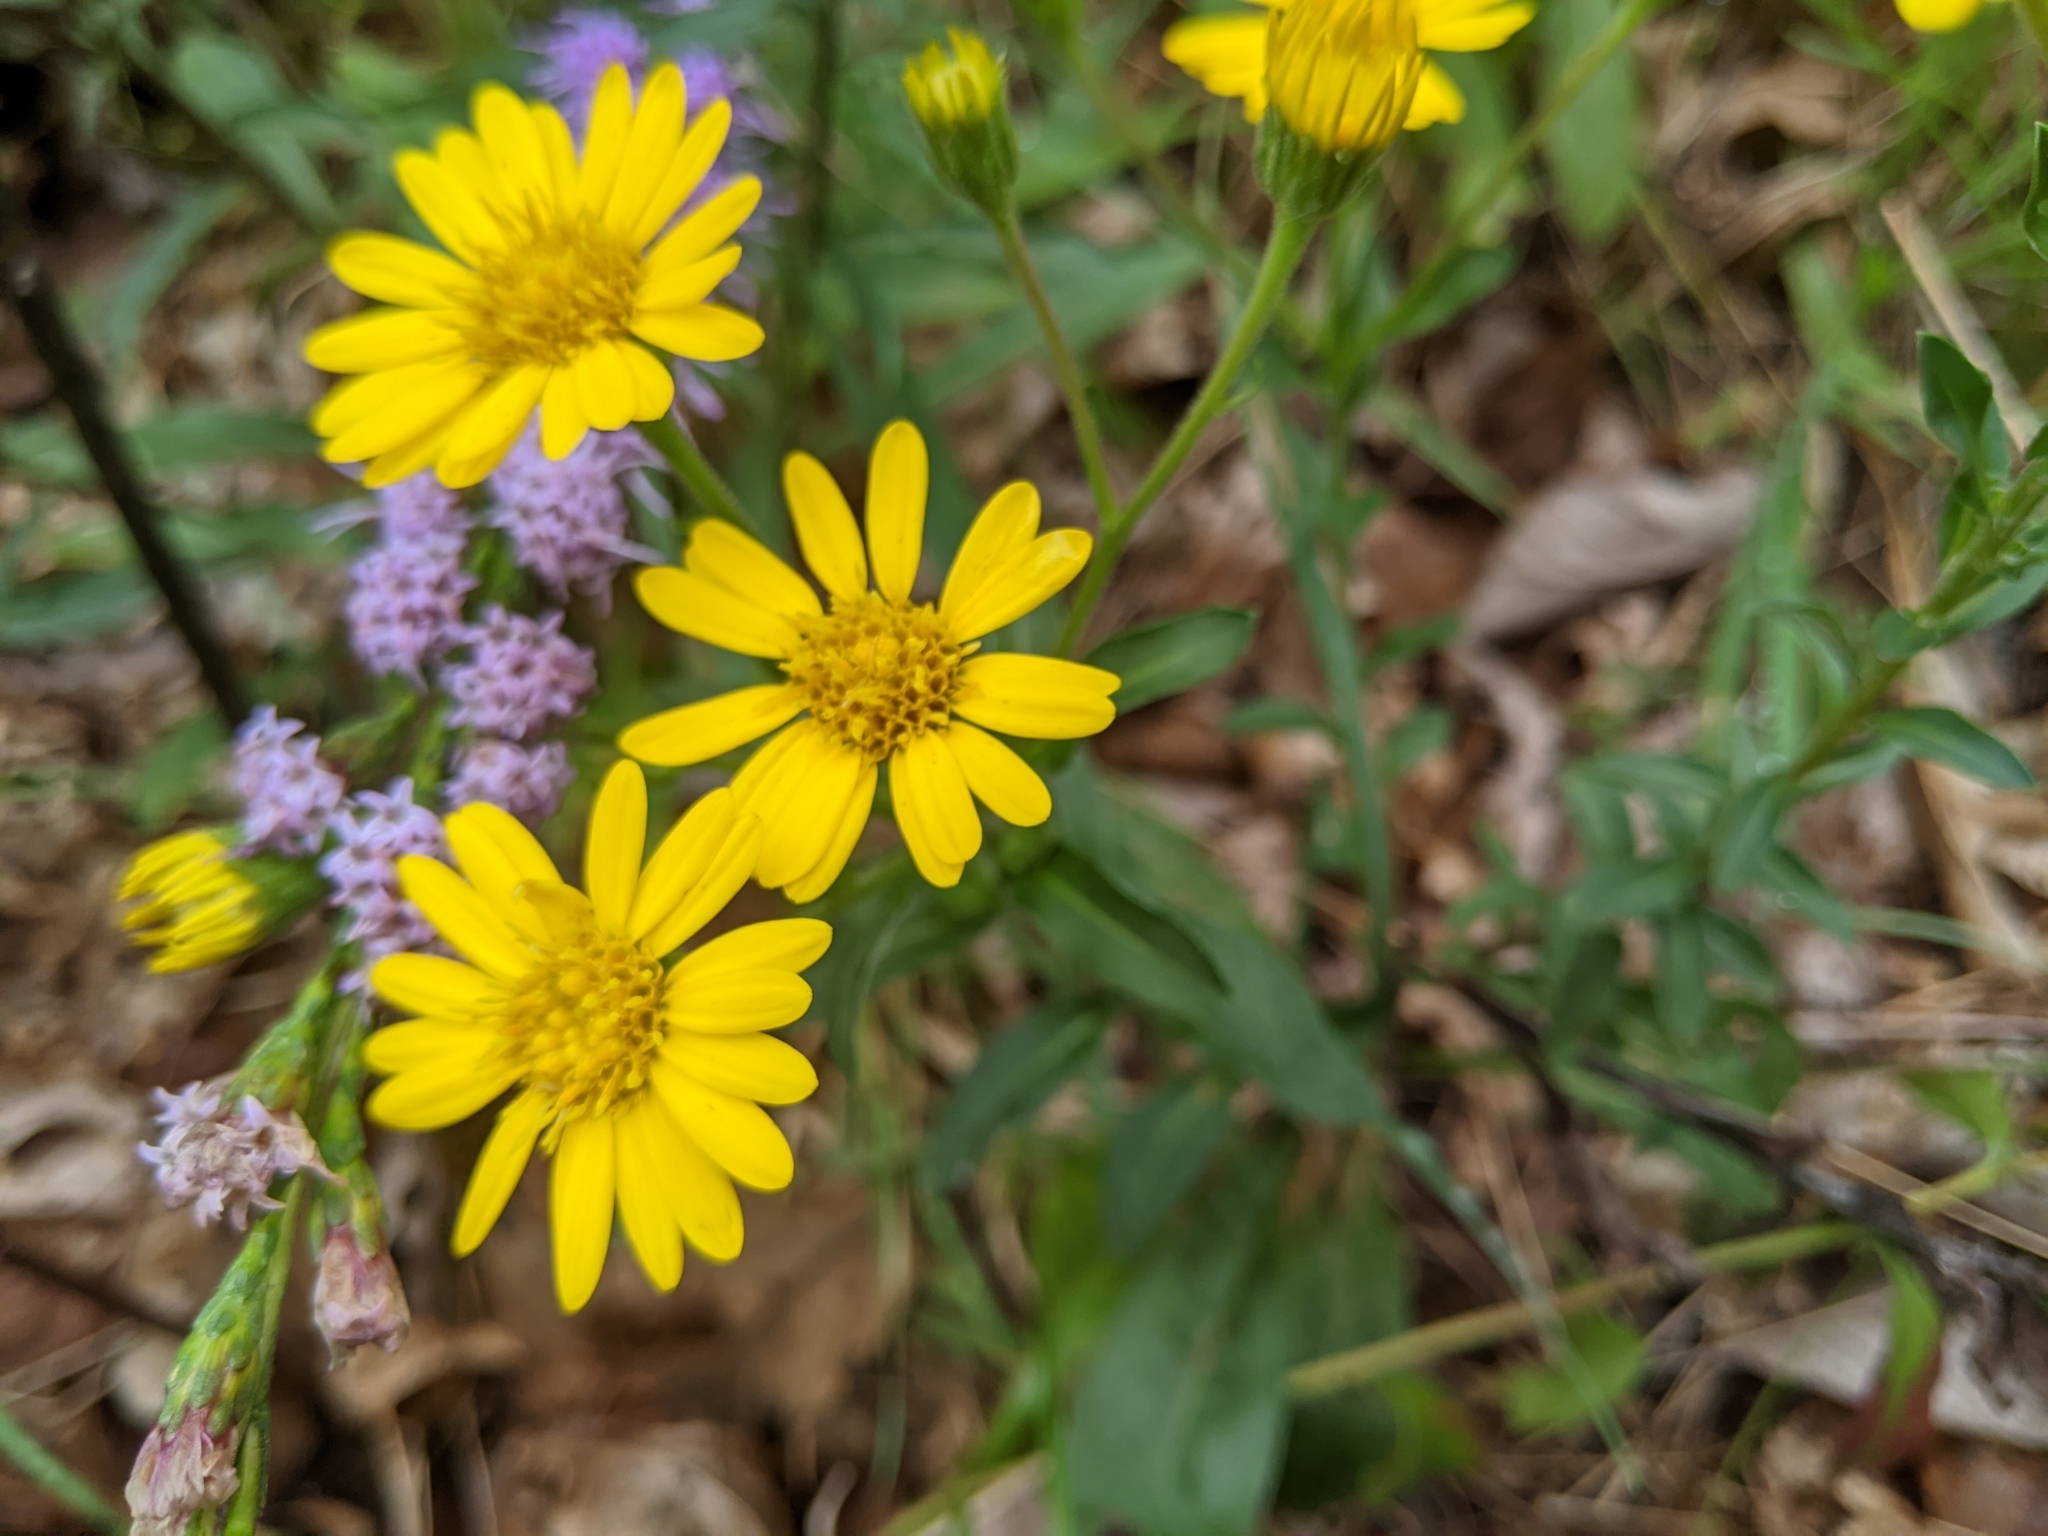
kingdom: Plantae
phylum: Tracheophyta
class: Magnoliopsida
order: Asterales
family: Asteraceae
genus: Chrysopsis
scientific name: Chrysopsis mariana
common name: Maryland golden-aster
